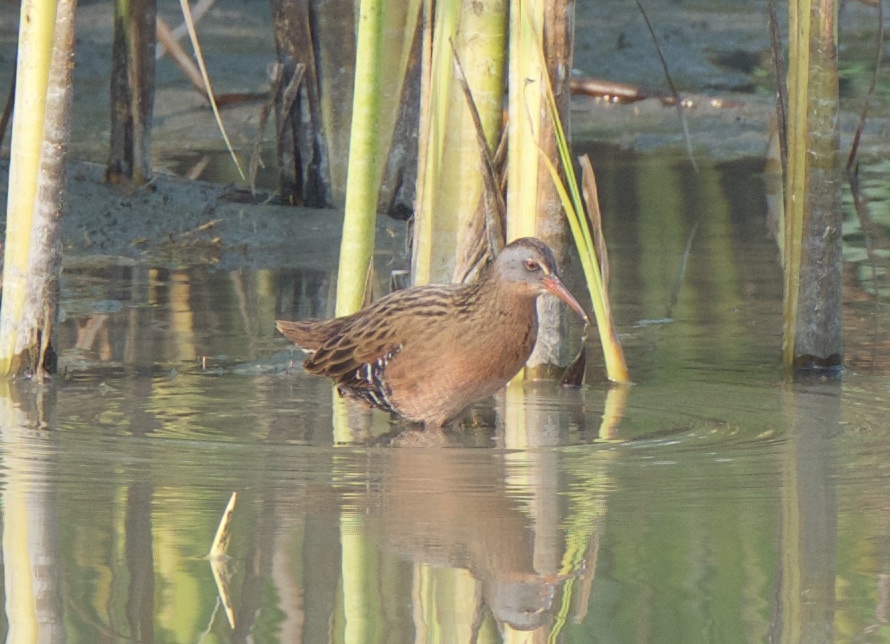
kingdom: Animalia
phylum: Chordata
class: Aves
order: Gruiformes
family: Rallidae
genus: Rallus
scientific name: Rallus limicola
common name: Virginia rail
